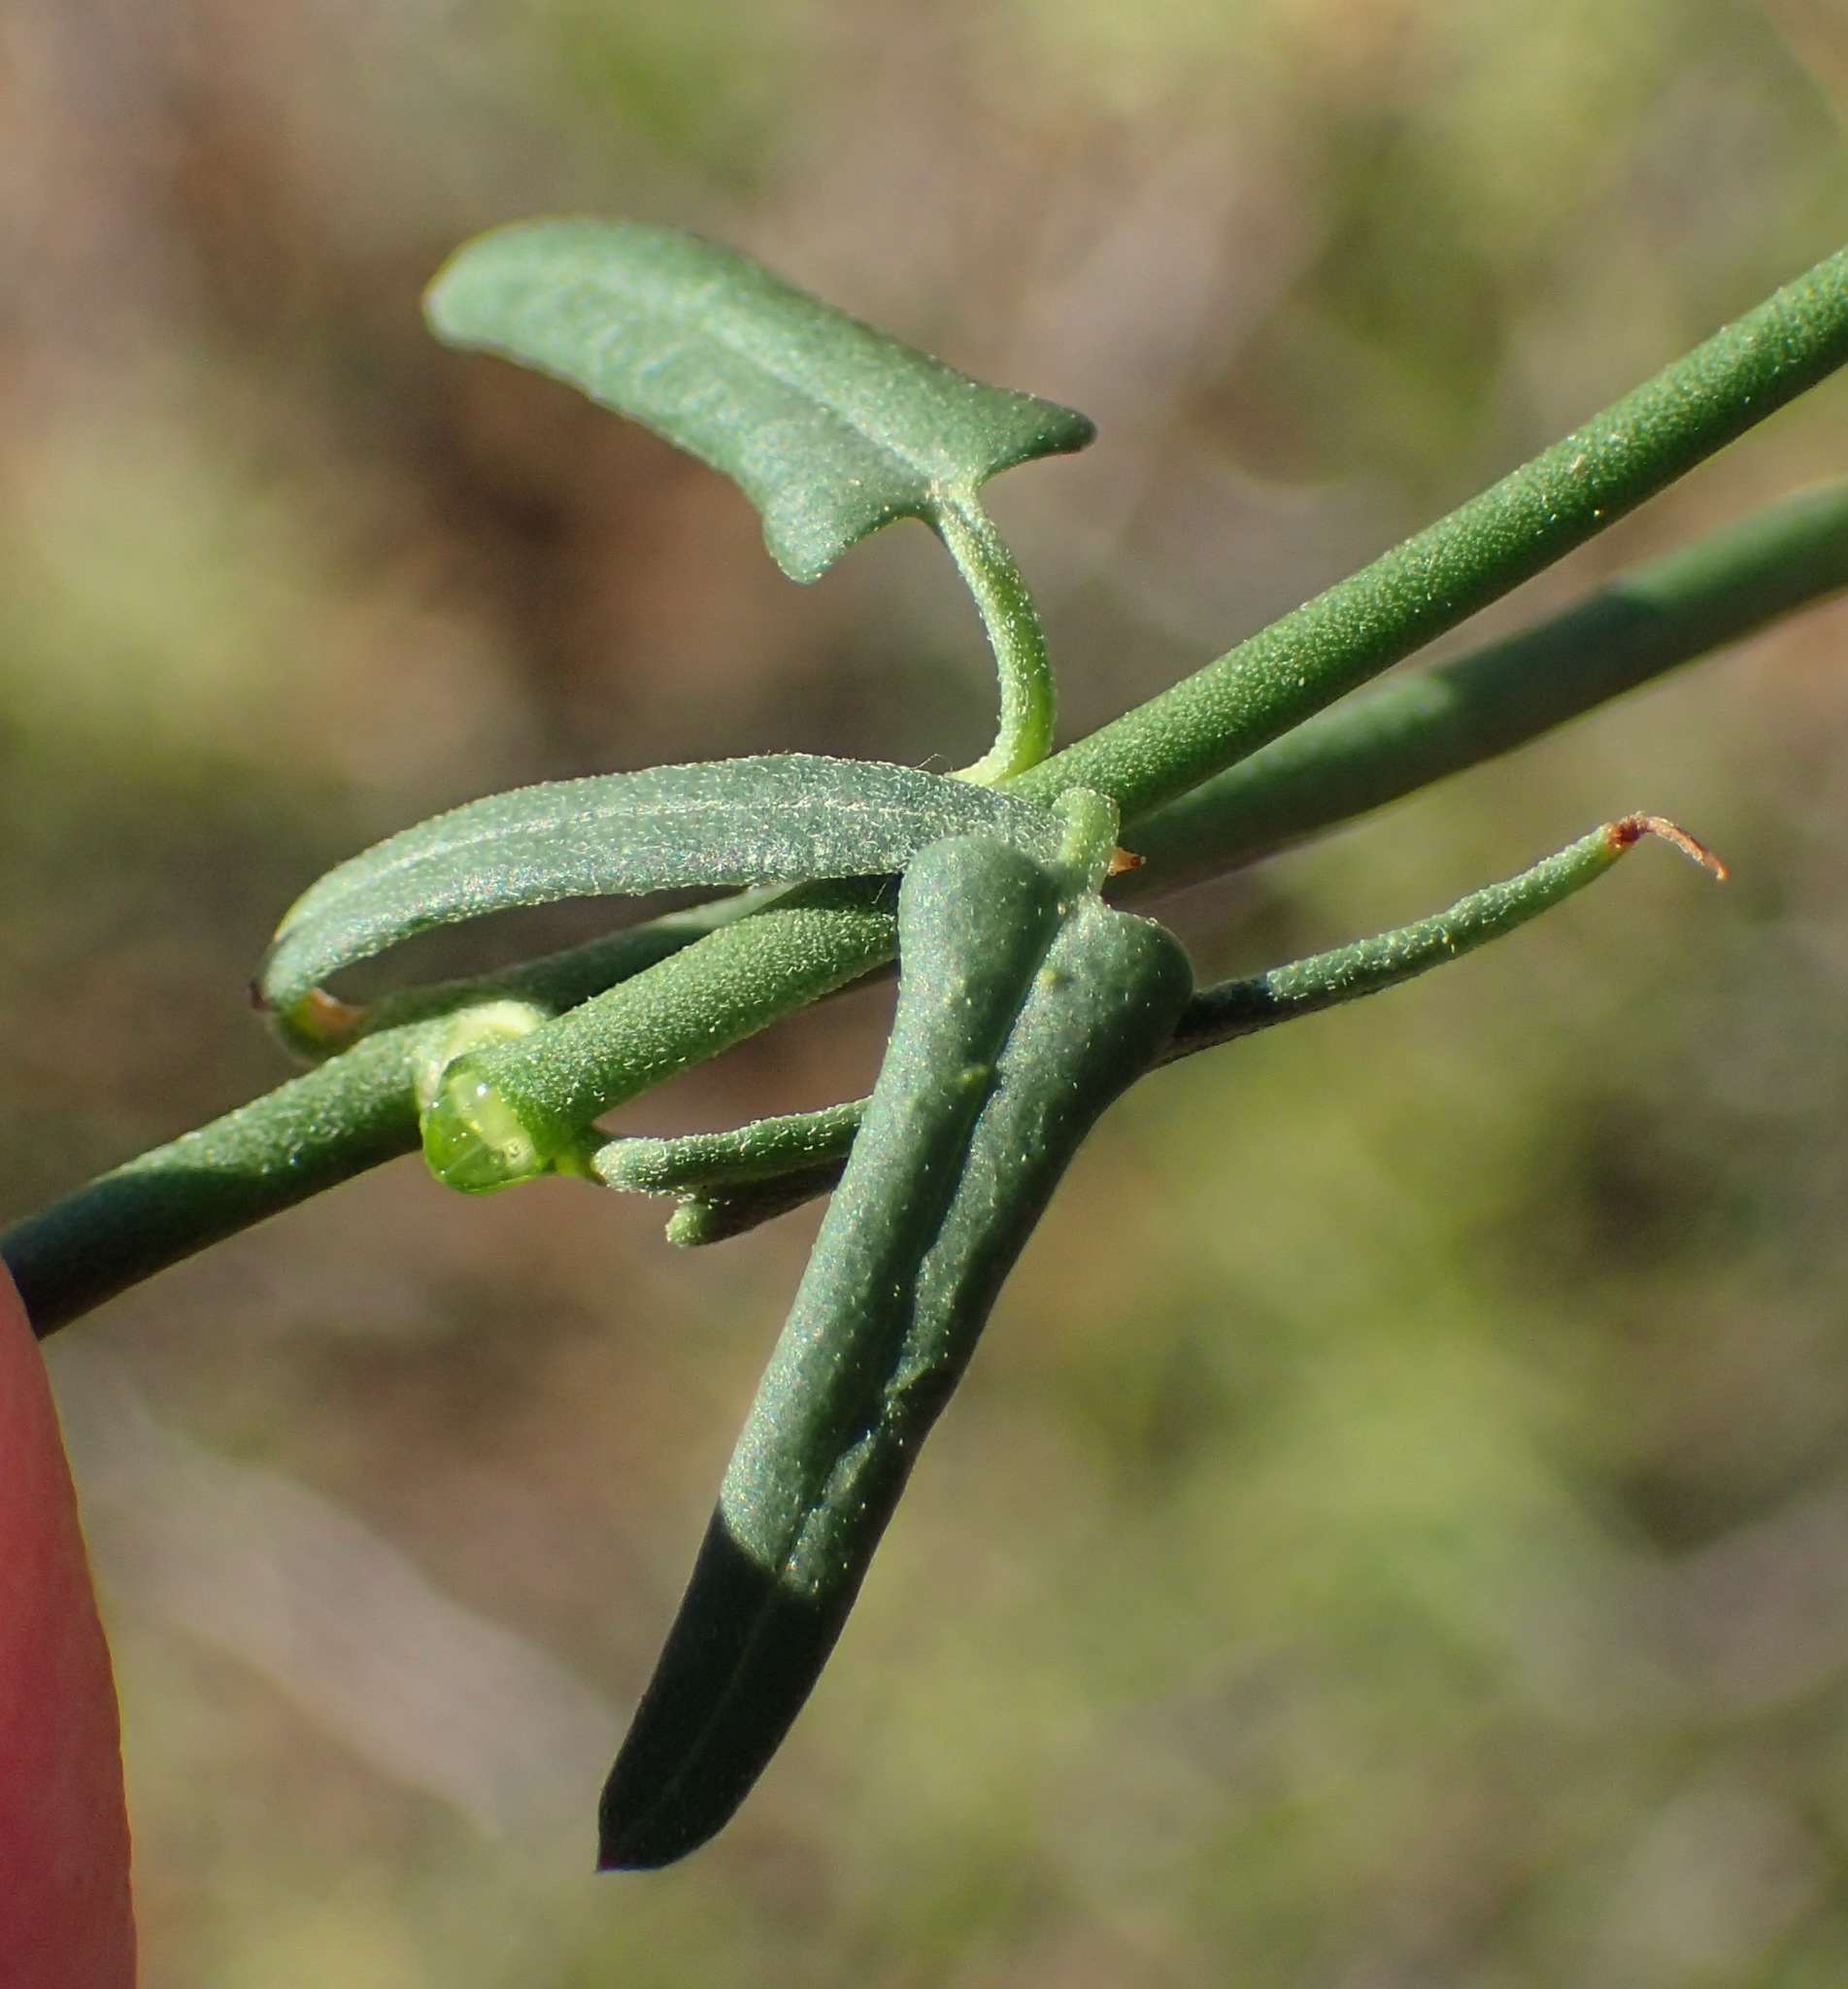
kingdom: Plantae
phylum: Tracheophyta
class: Magnoliopsida
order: Gentianales
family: Apocynaceae
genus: Microloma
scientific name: Microloma sagittatum
